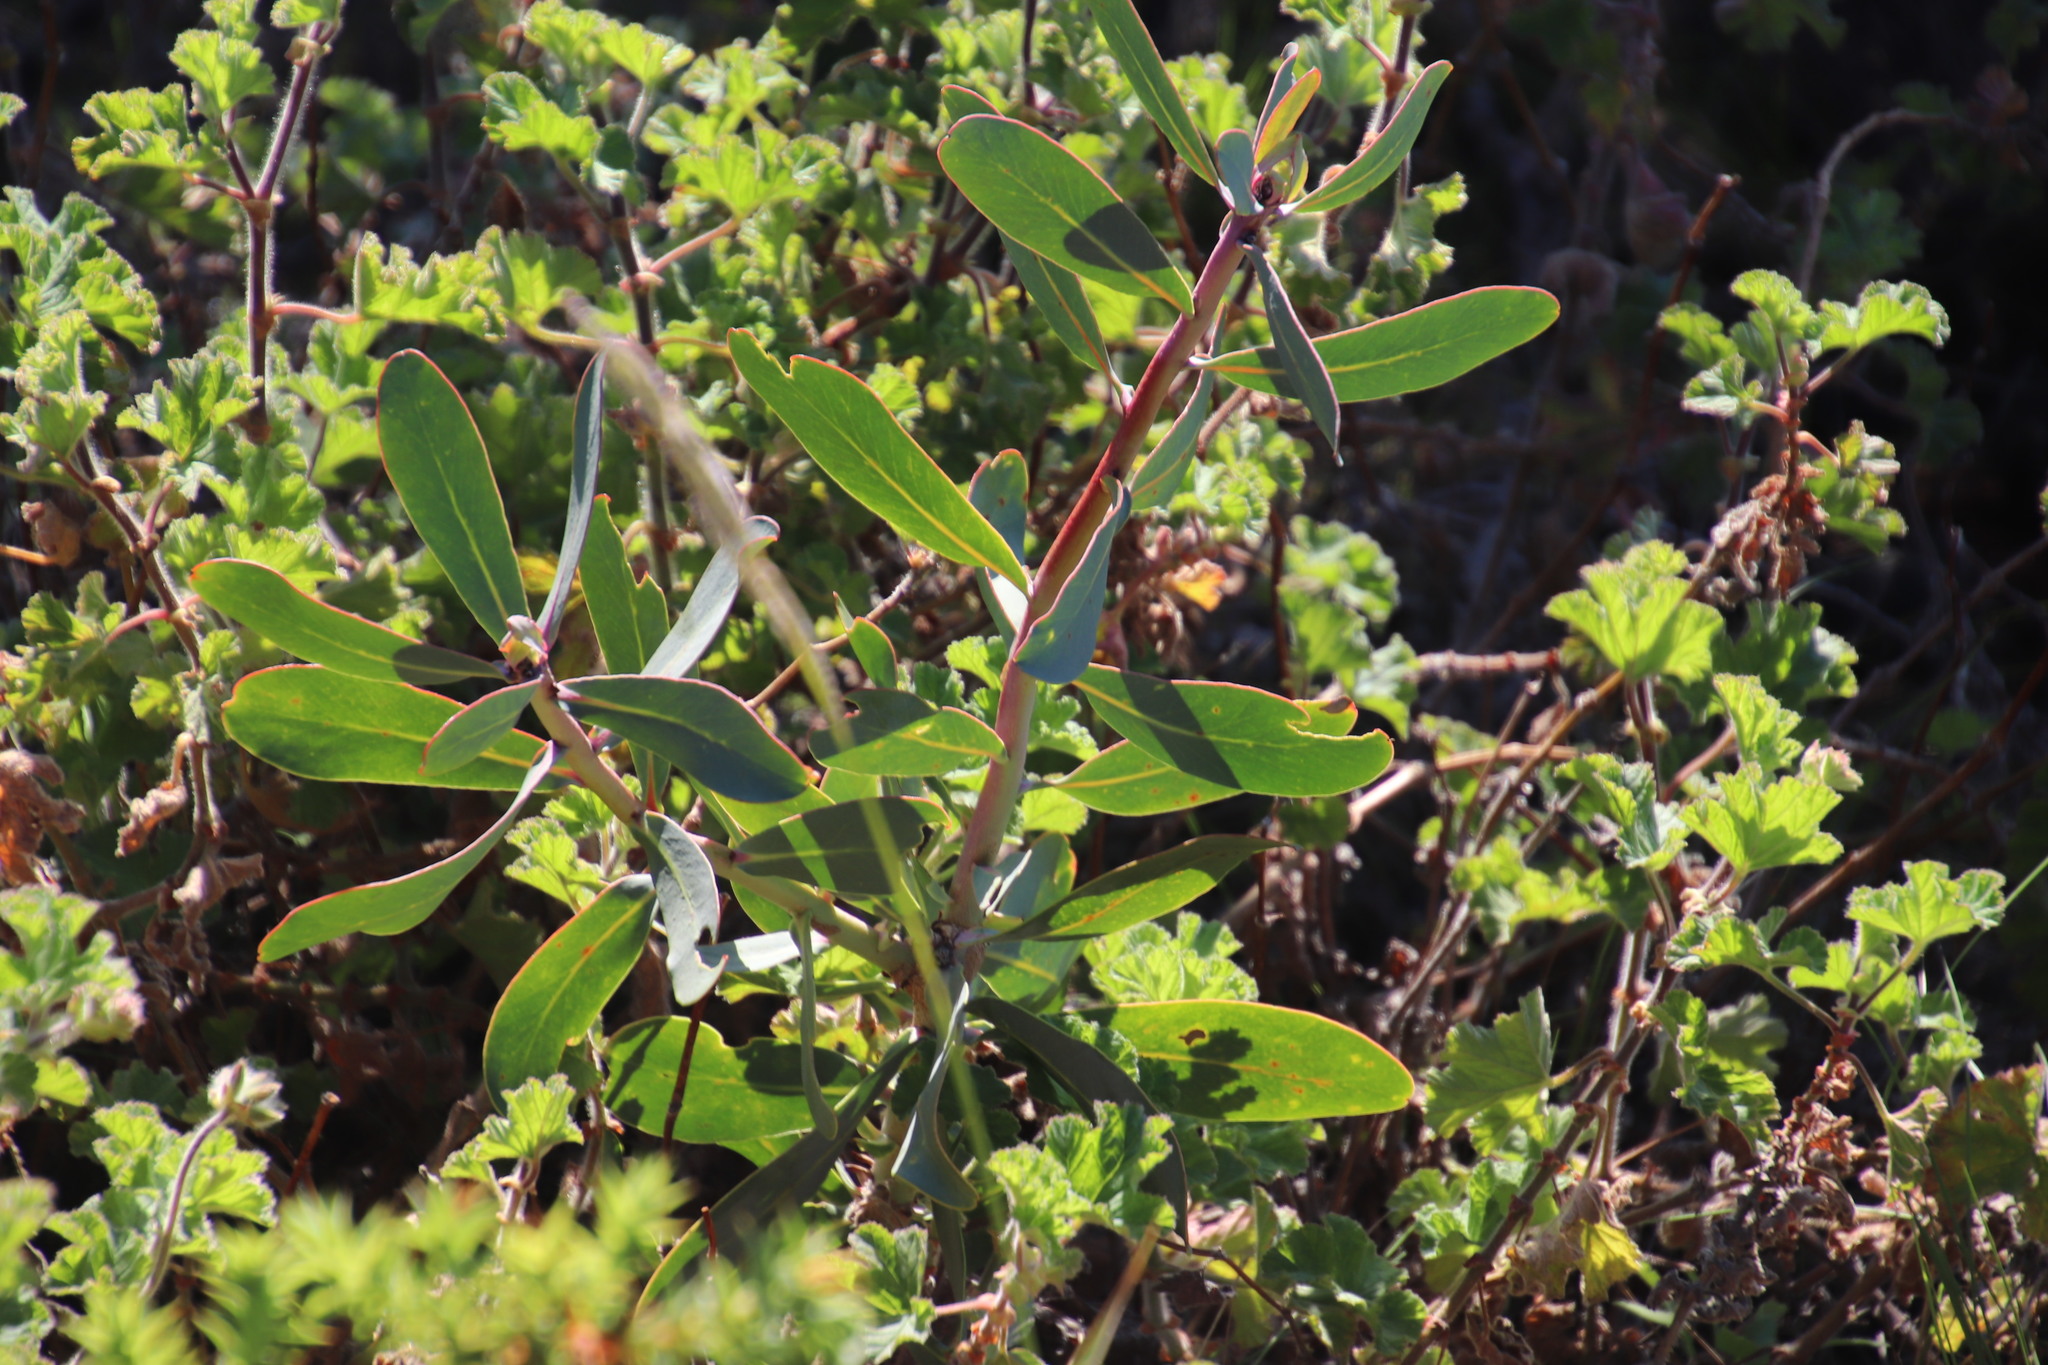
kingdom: Plantae
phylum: Tracheophyta
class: Magnoliopsida
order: Proteales
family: Proteaceae
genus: Protea
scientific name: Protea nitida
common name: Tree protea
